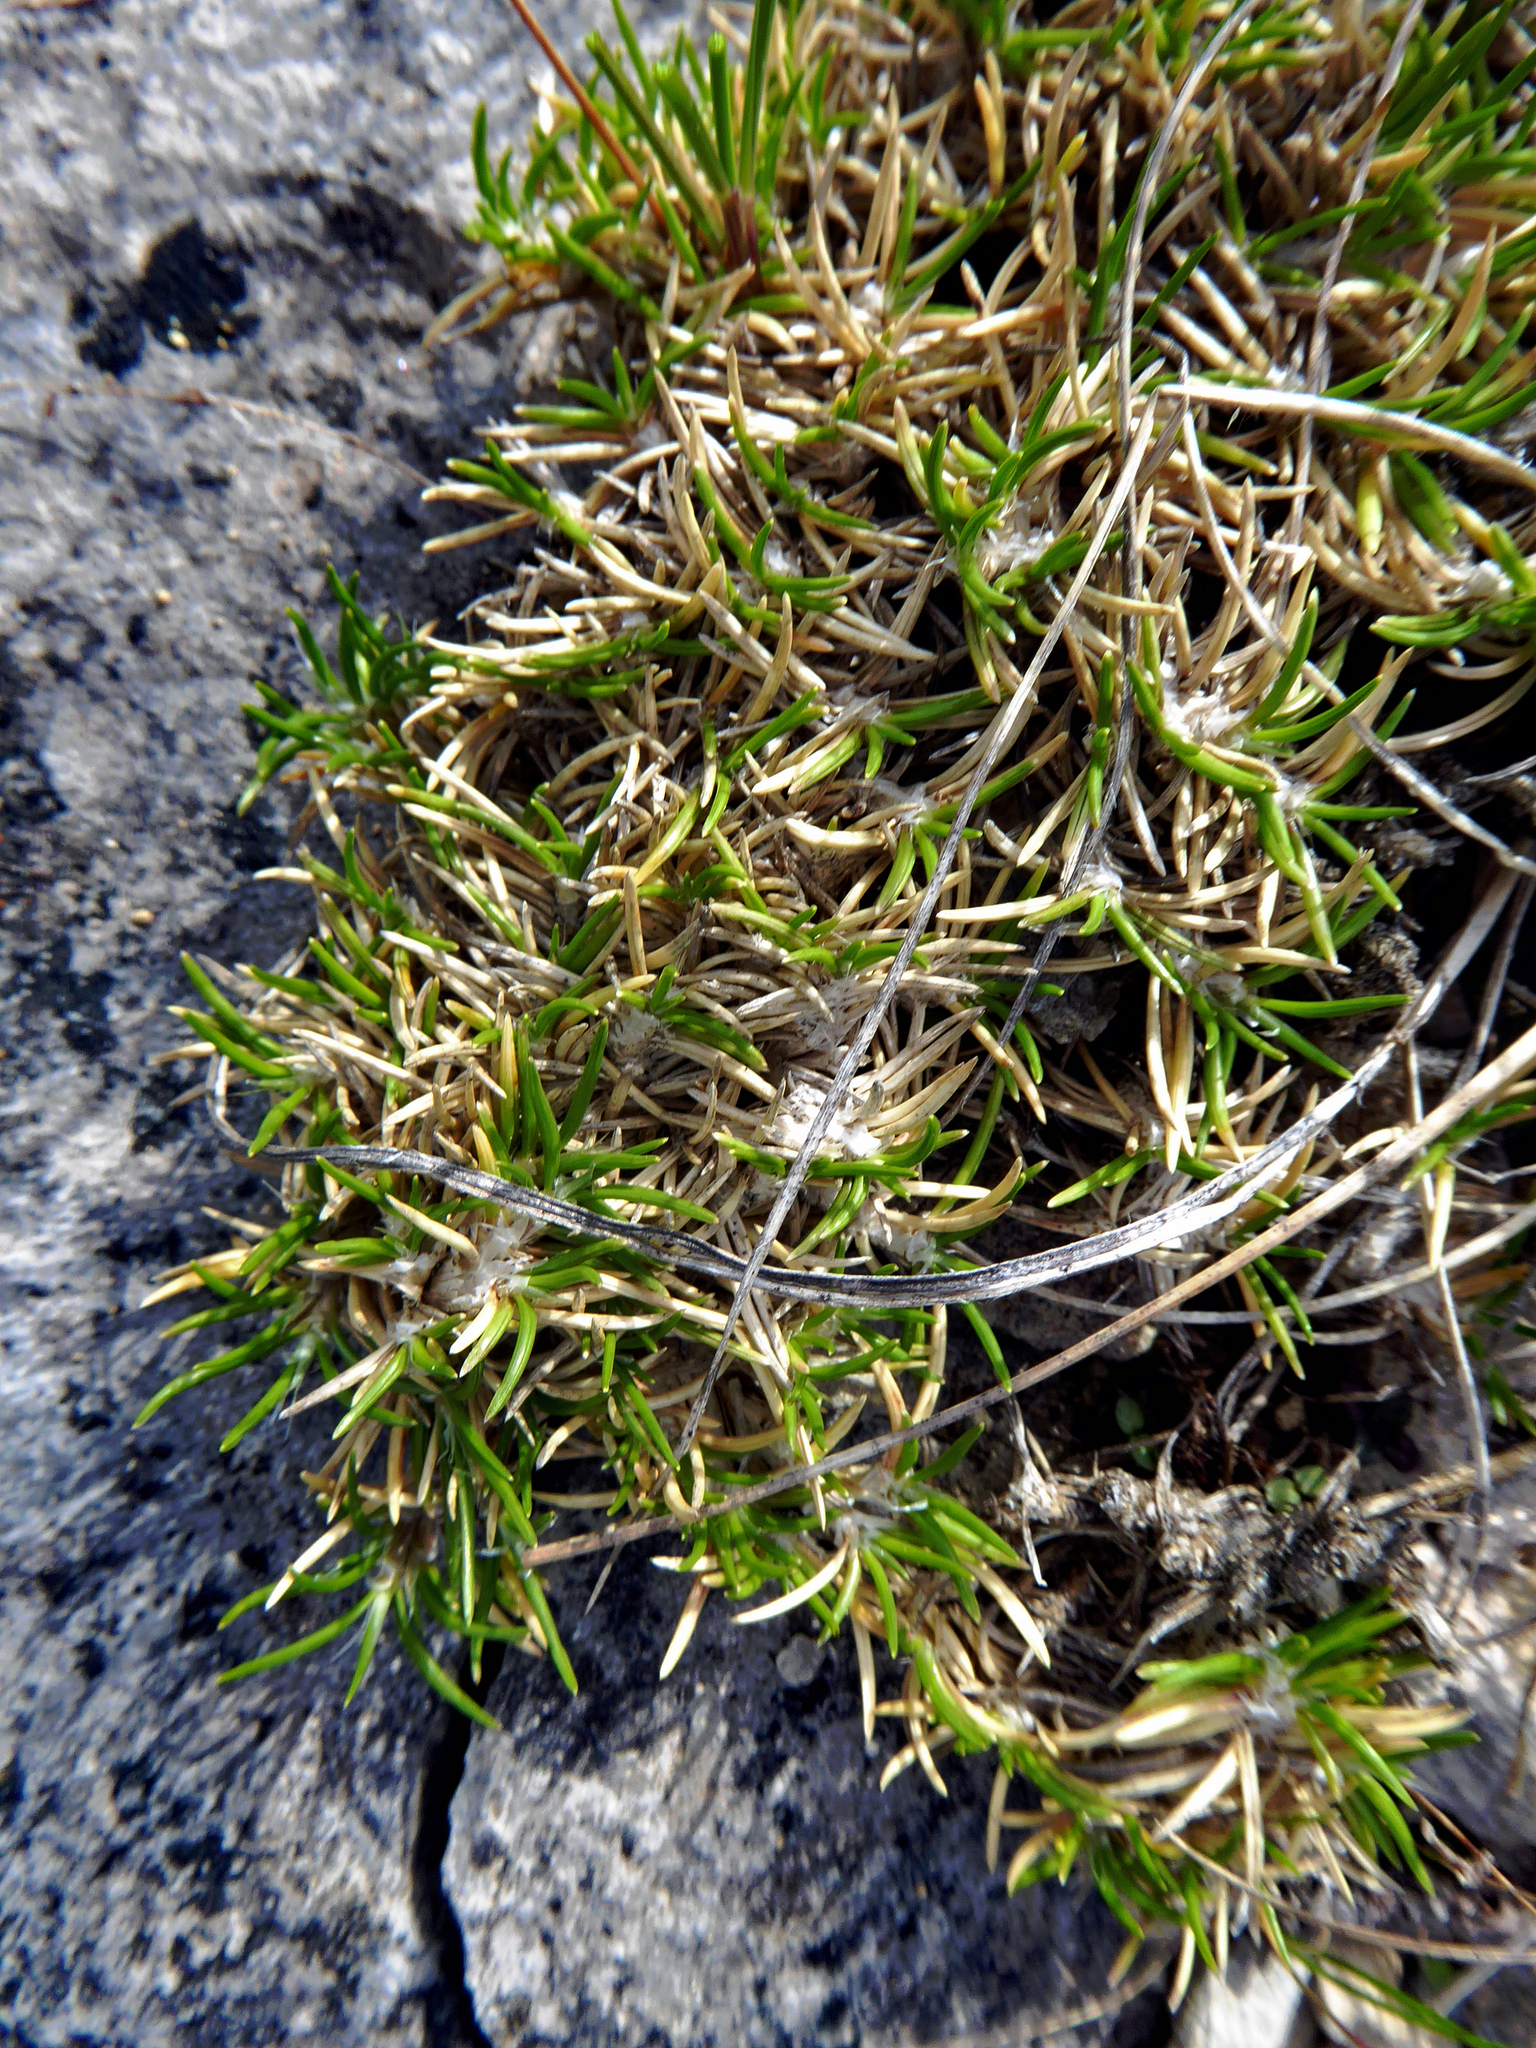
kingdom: Plantae
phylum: Tracheophyta
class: Liliopsida
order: Poales
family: Poaceae
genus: Poa
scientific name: Poa acicularifolia
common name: Limestone cushion poa
